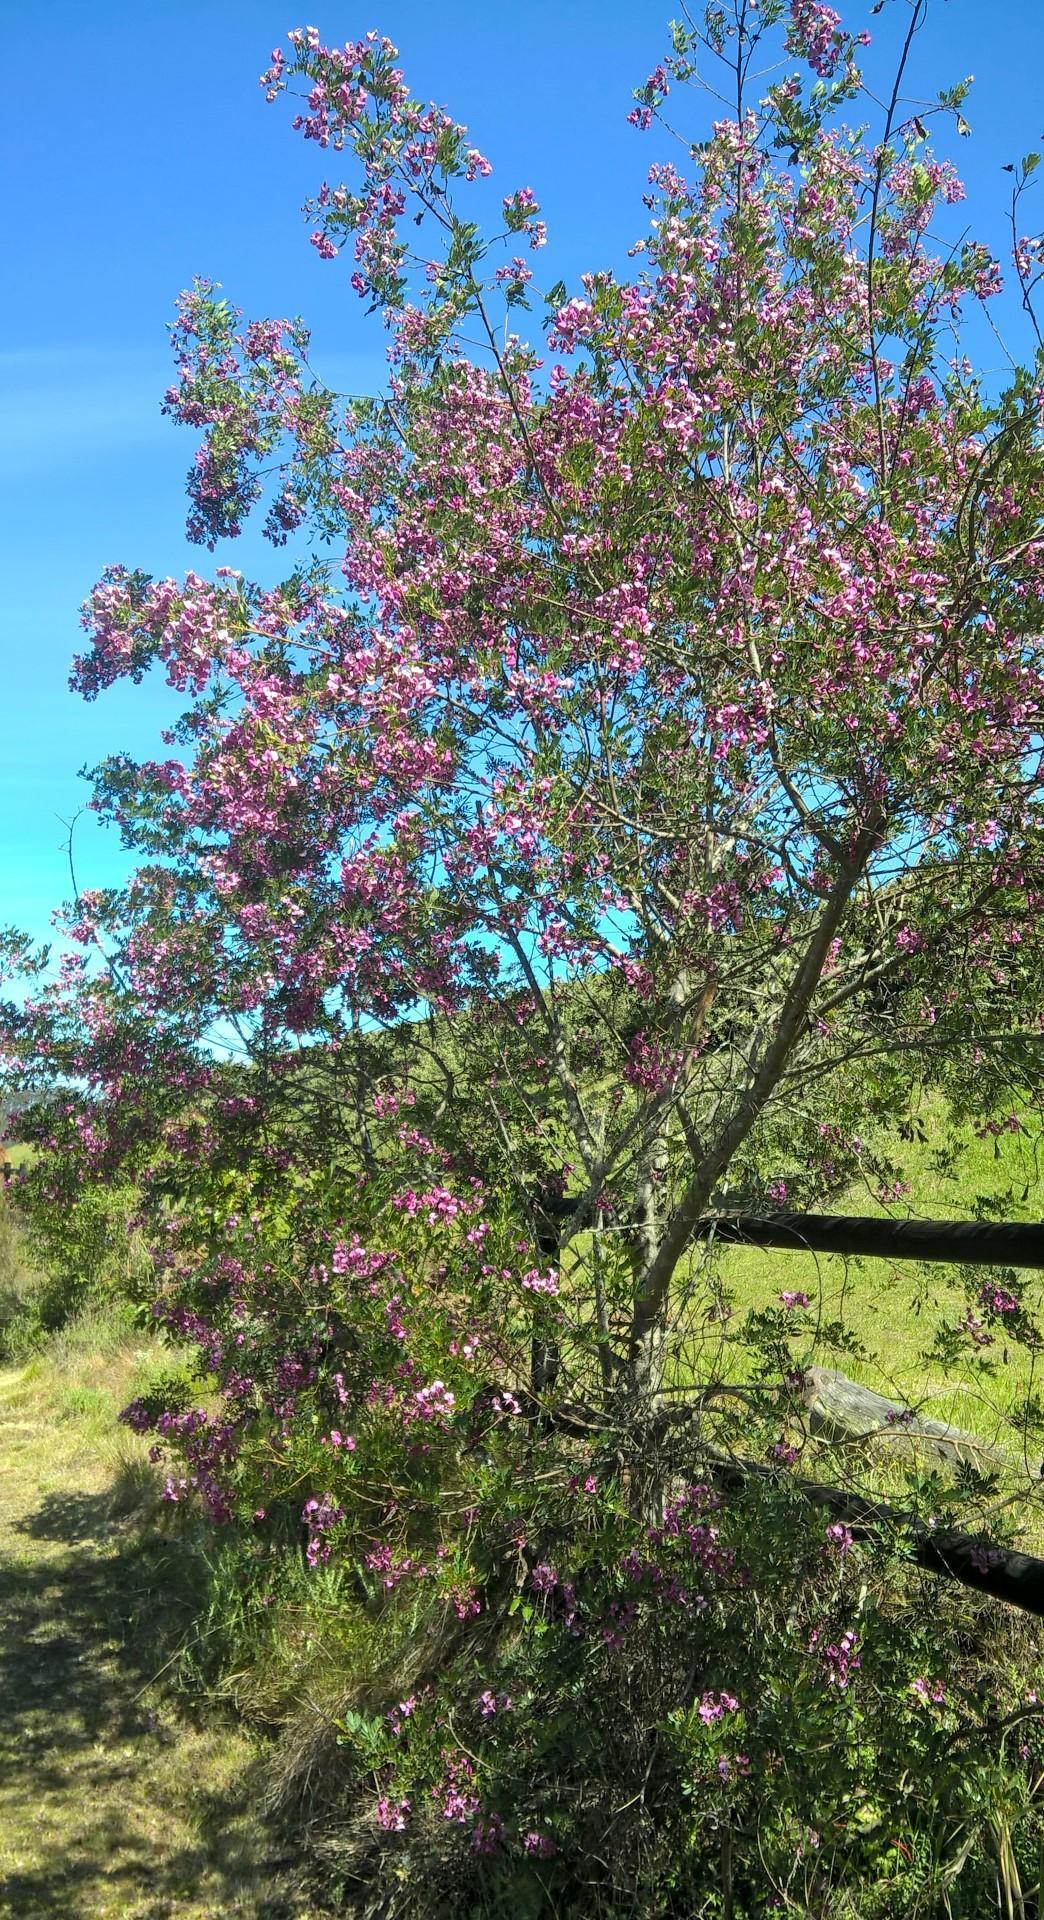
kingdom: Plantae
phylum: Tracheophyta
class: Magnoliopsida
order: Fabales
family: Fabaceae
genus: Virgilia
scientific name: Virgilia divaricata
